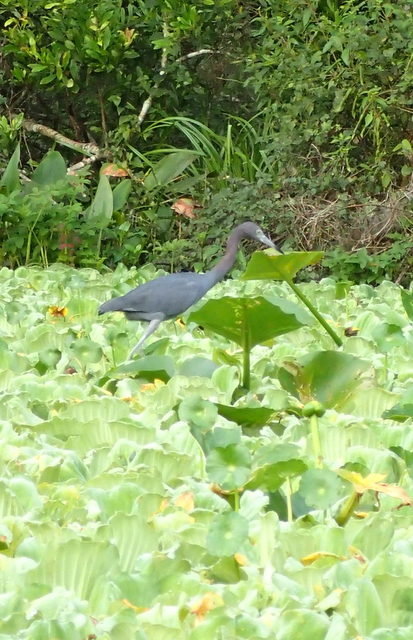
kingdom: Animalia
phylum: Chordata
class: Aves
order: Pelecaniformes
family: Ardeidae
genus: Egretta
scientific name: Egretta caerulea
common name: Little blue heron
